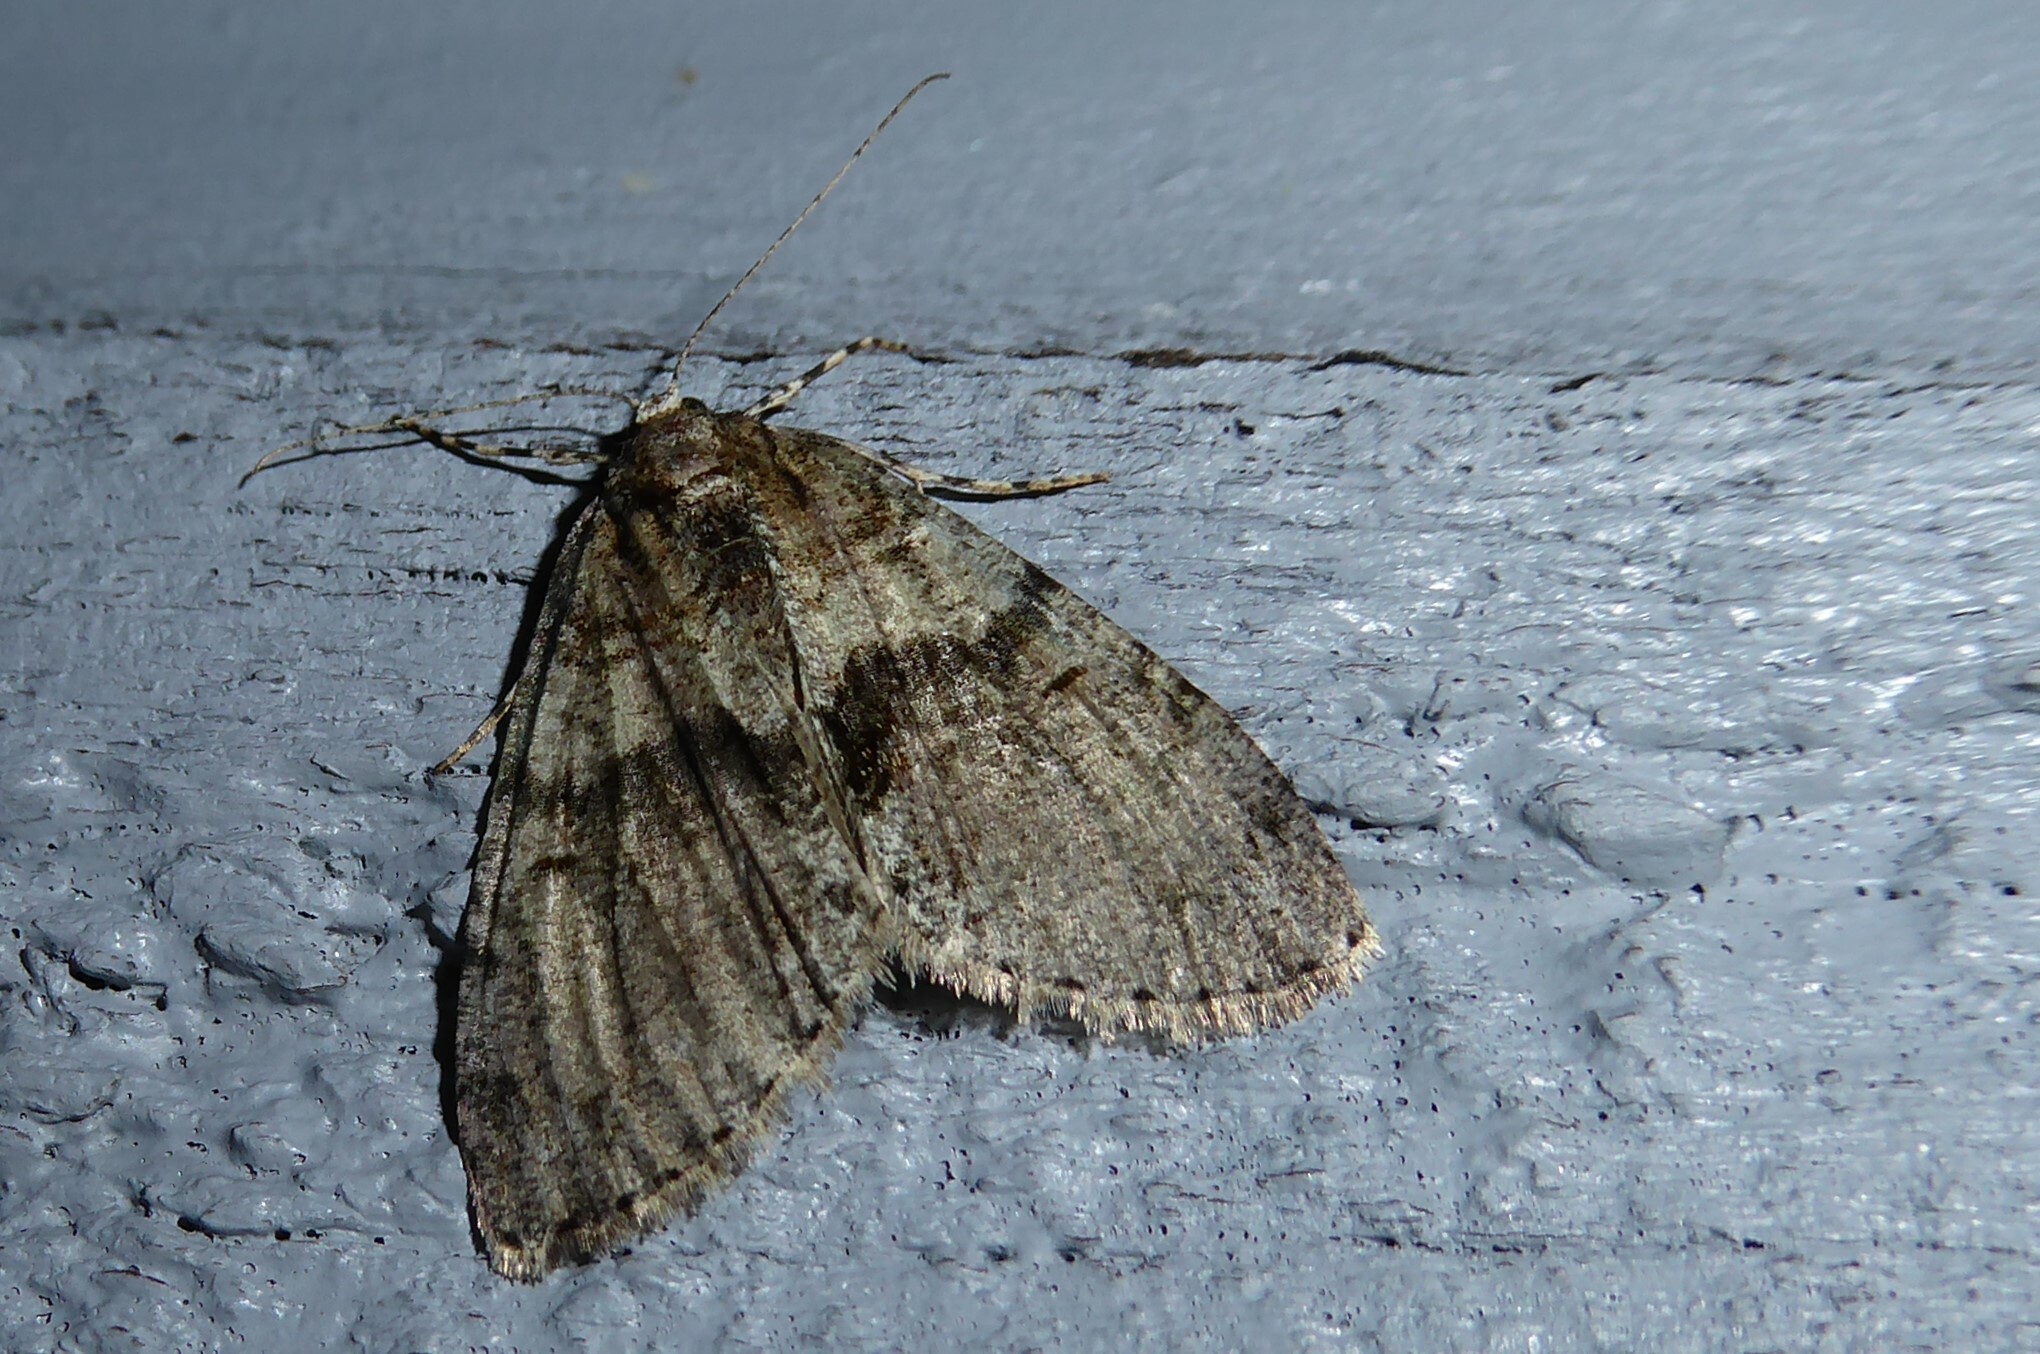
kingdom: Animalia
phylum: Arthropoda
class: Insecta
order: Lepidoptera
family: Geometridae
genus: Pseudocoremia
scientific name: Pseudocoremia suavis
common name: Common forest looper
